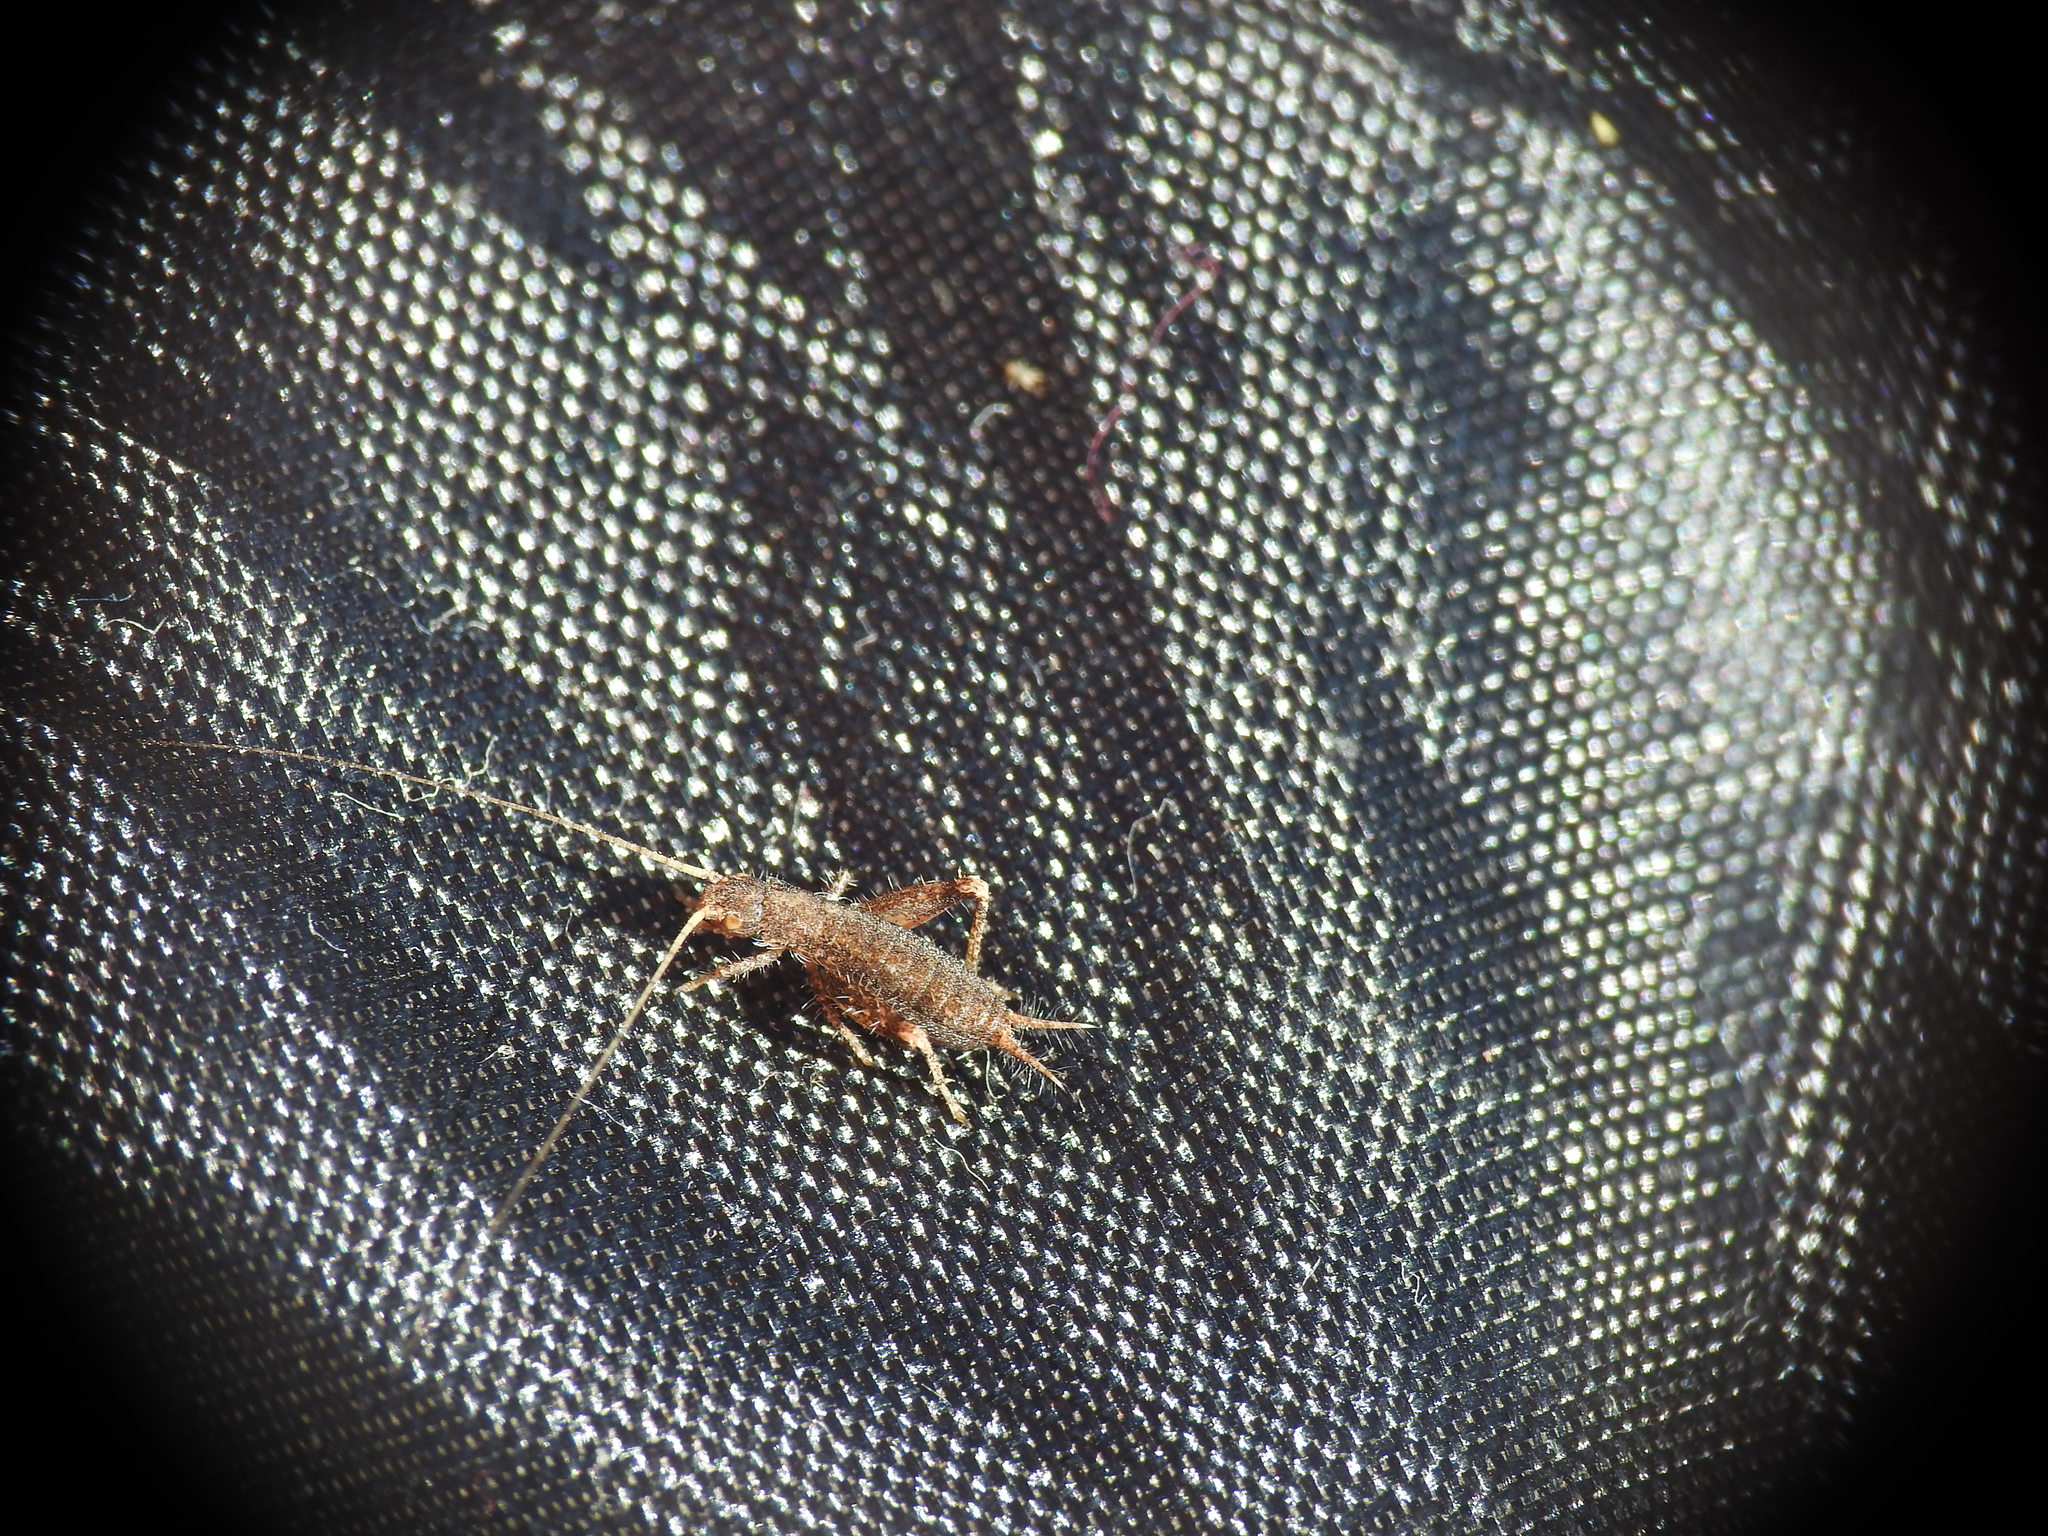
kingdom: Animalia
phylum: Arthropoda
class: Insecta
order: Orthoptera
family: Mogoplistidae
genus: Arachnocephalus
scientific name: Arachnocephalus vestitus
